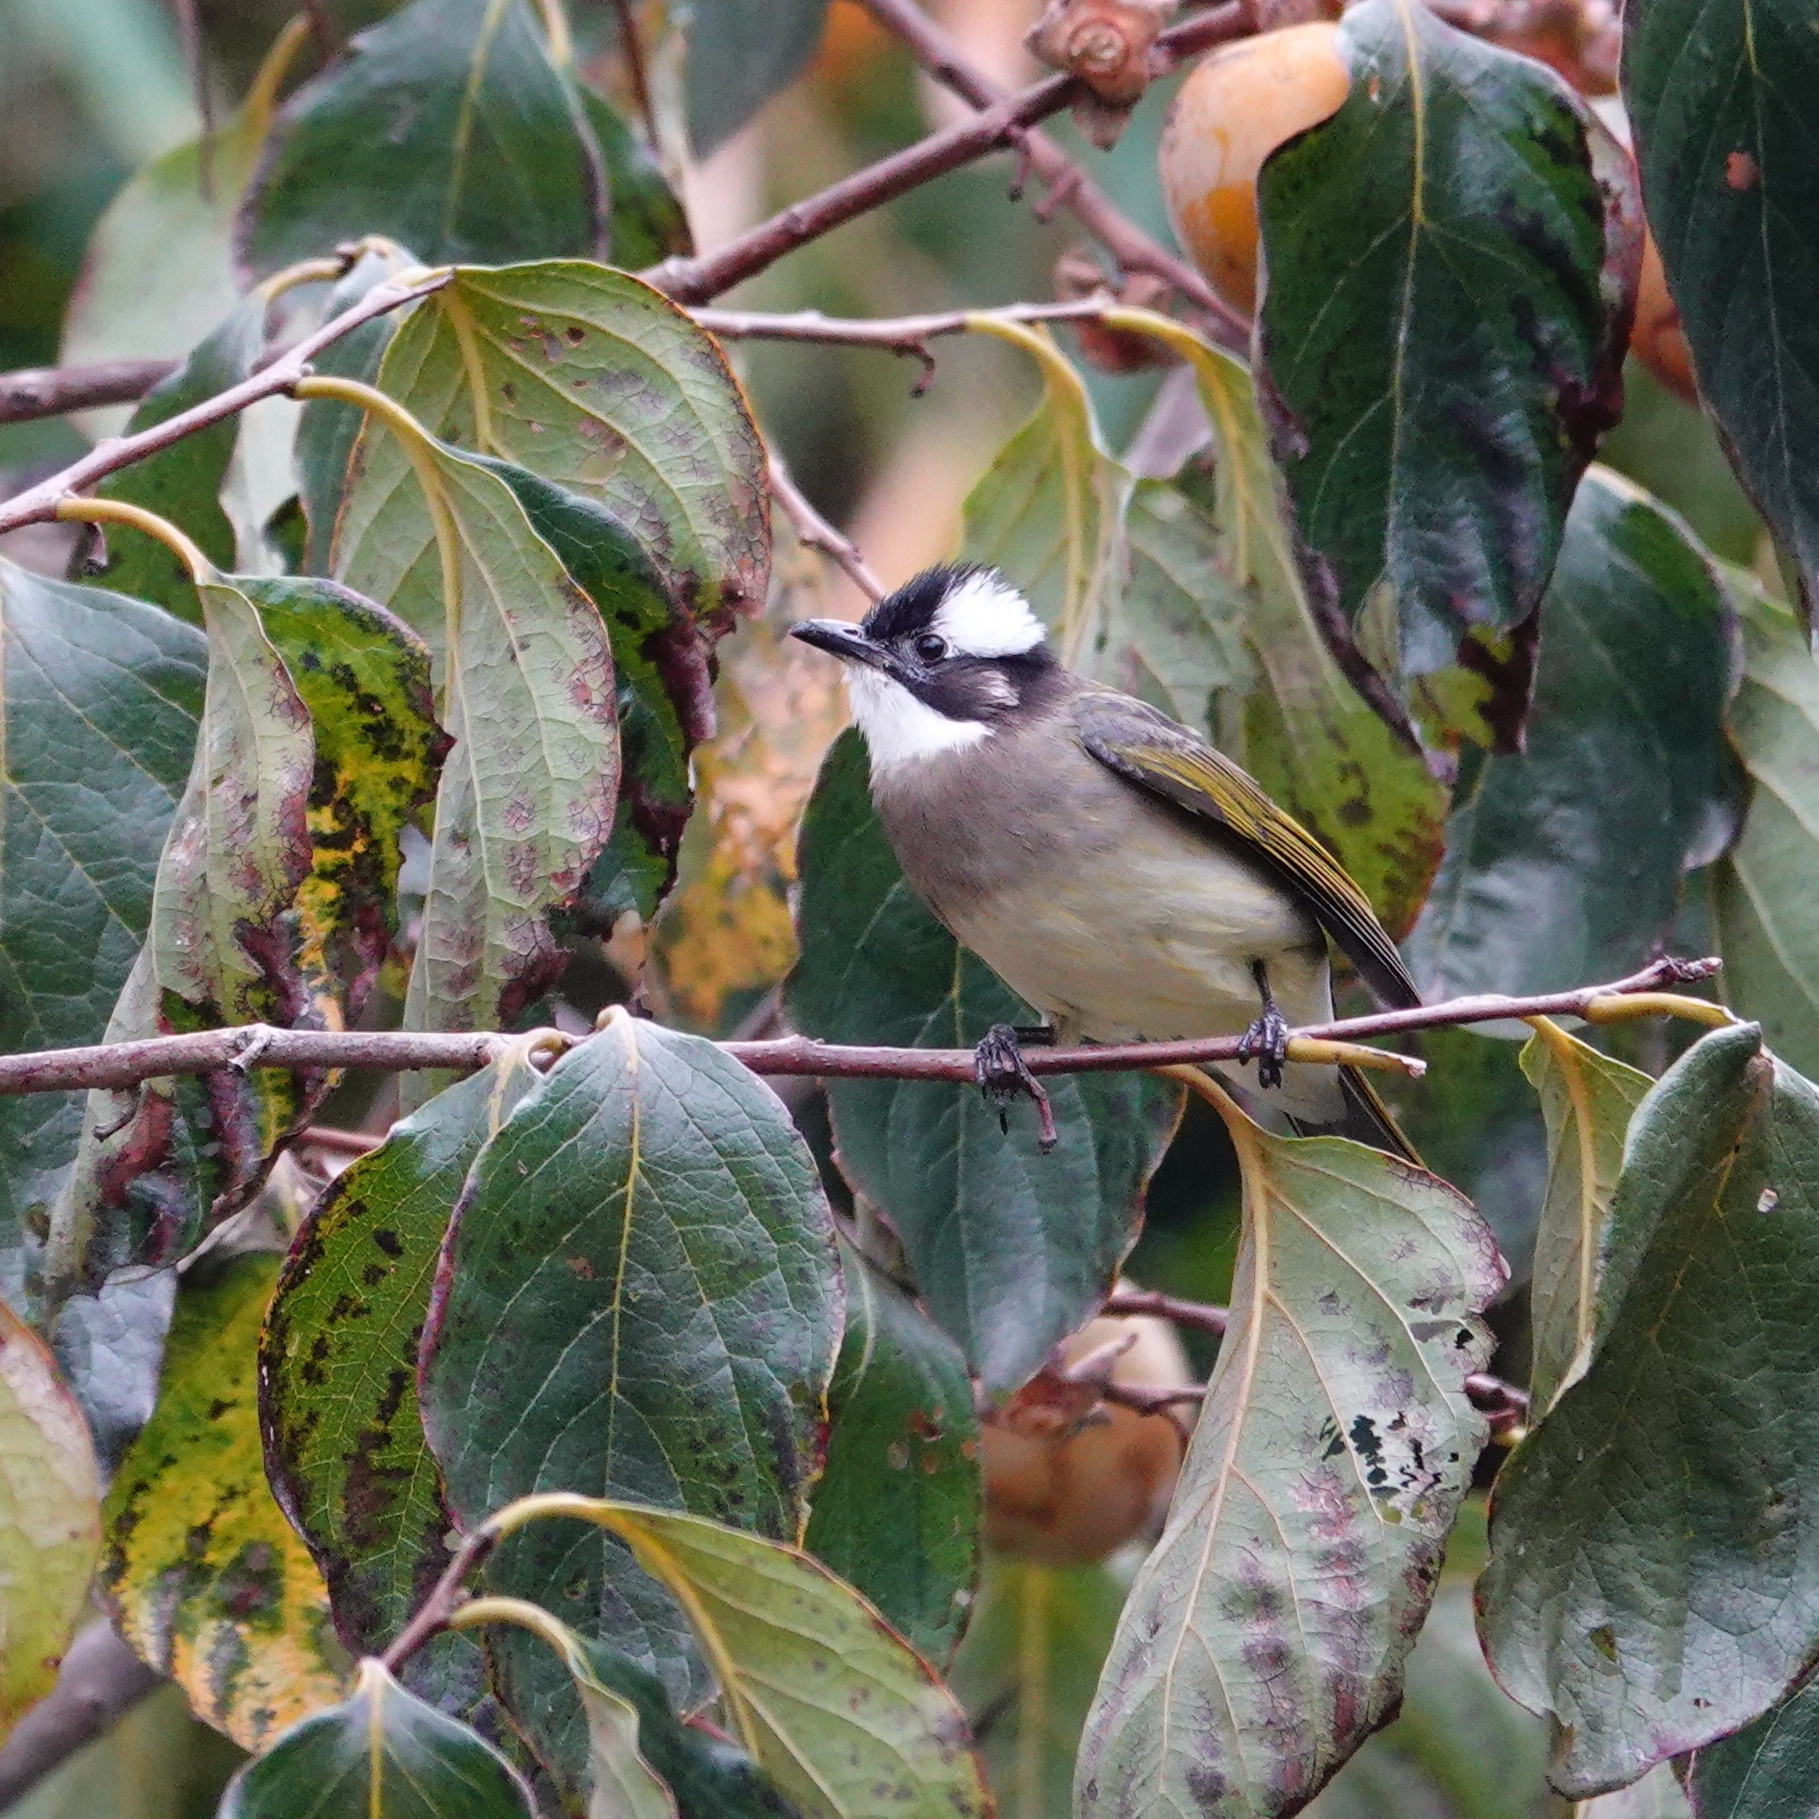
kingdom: Animalia
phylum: Chordata
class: Aves
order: Passeriformes
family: Pycnonotidae
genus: Pycnonotus
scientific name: Pycnonotus sinensis
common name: Light-vented bulbul
